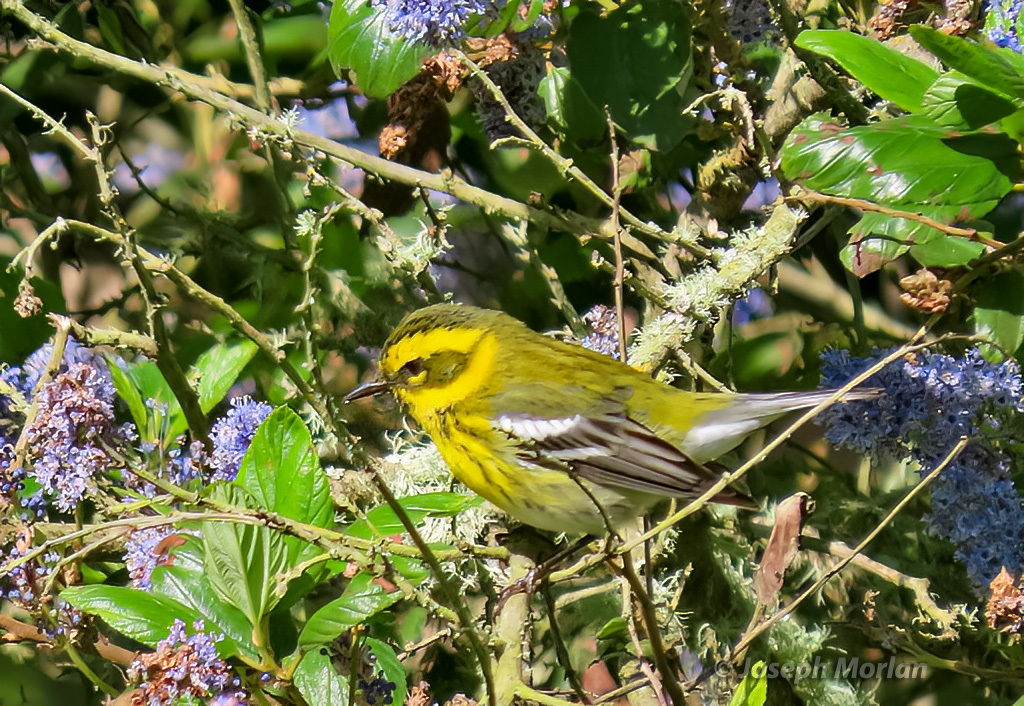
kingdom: Animalia
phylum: Chordata
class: Aves
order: Passeriformes
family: Parulidae
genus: Setophaga
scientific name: Setophaga townsendi
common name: Townsend's warbler
